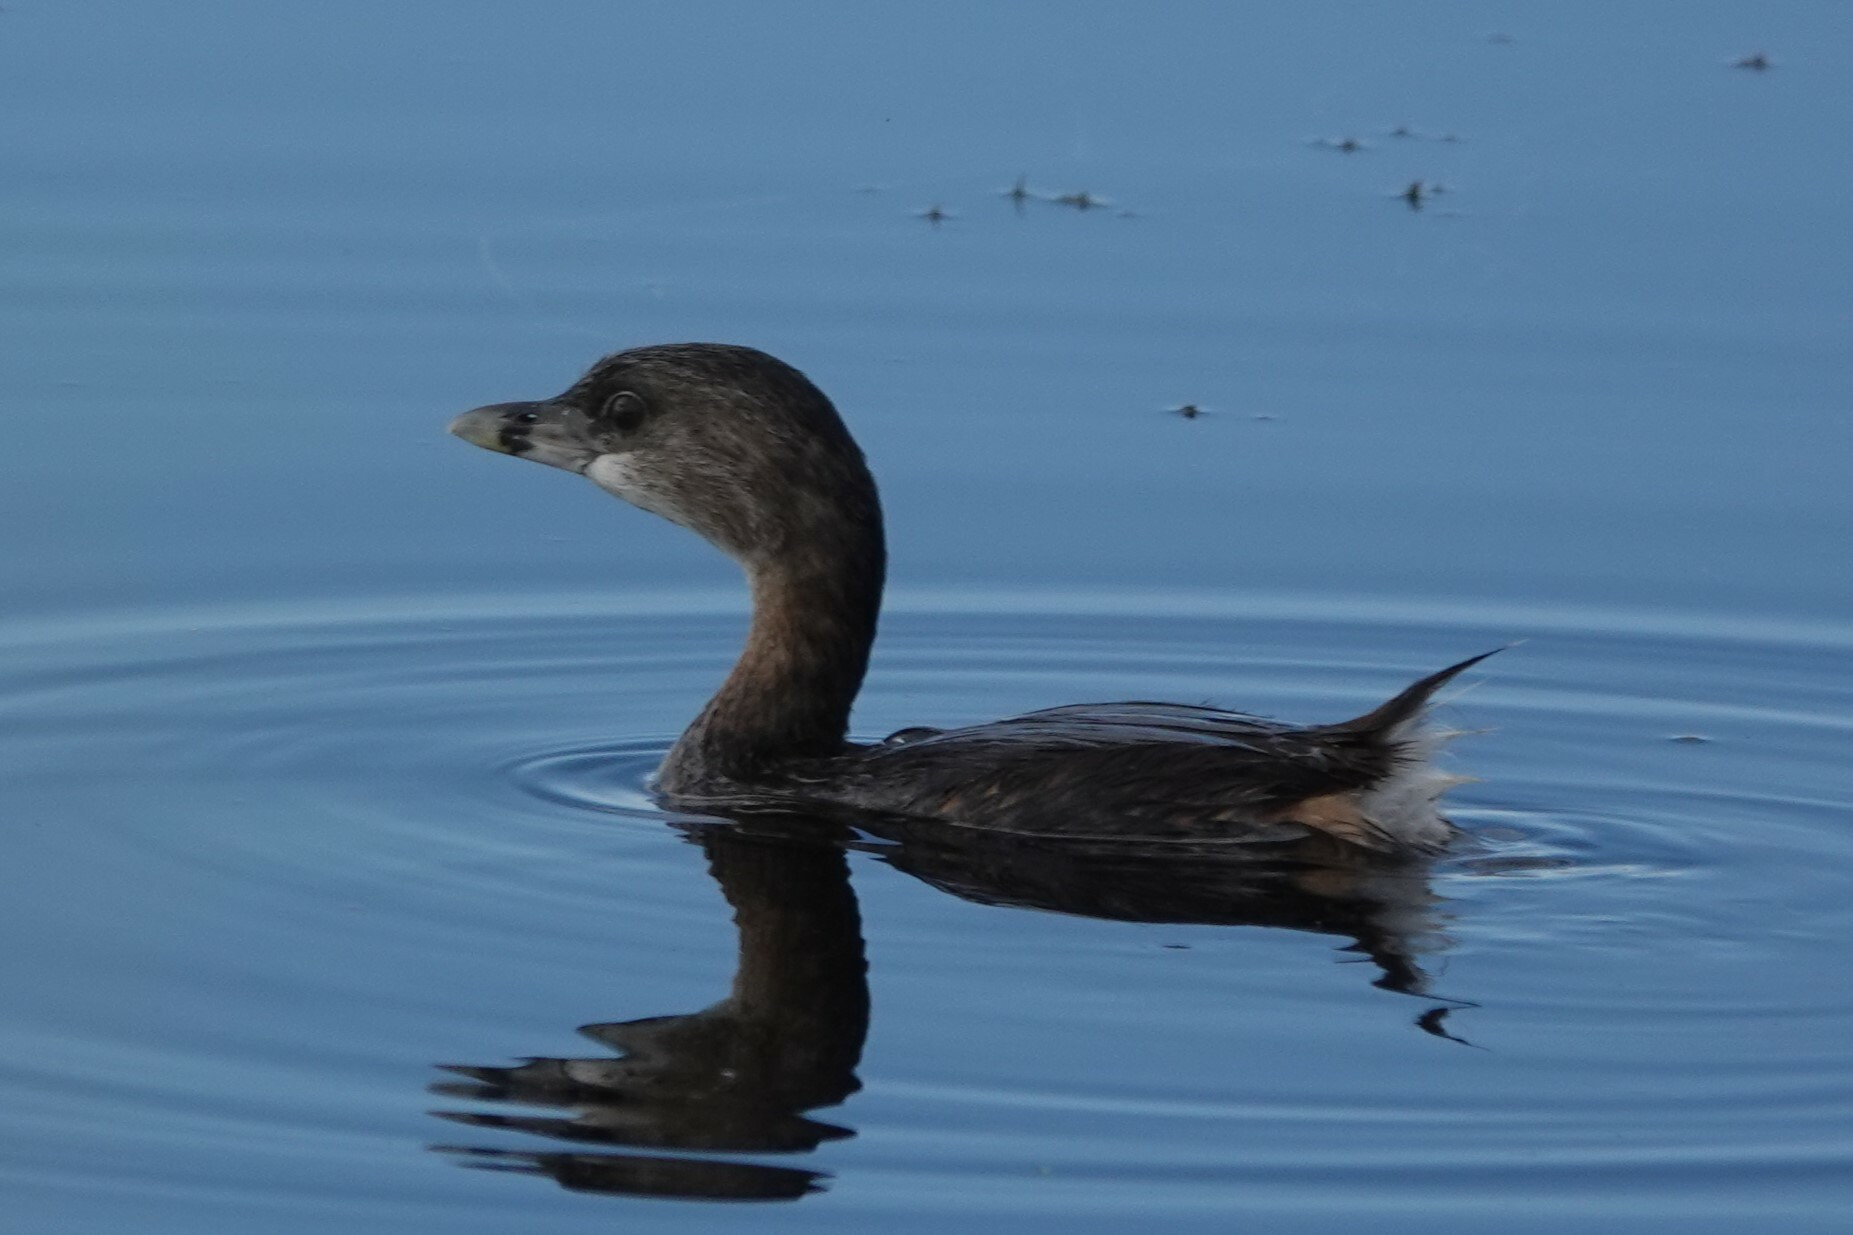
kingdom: Animalia
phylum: Chordata
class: Aves
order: Podicipediformes
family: Podicipedidae
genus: Podilymbus
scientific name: Podilymbus podiceps
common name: Pied-billed grebe
